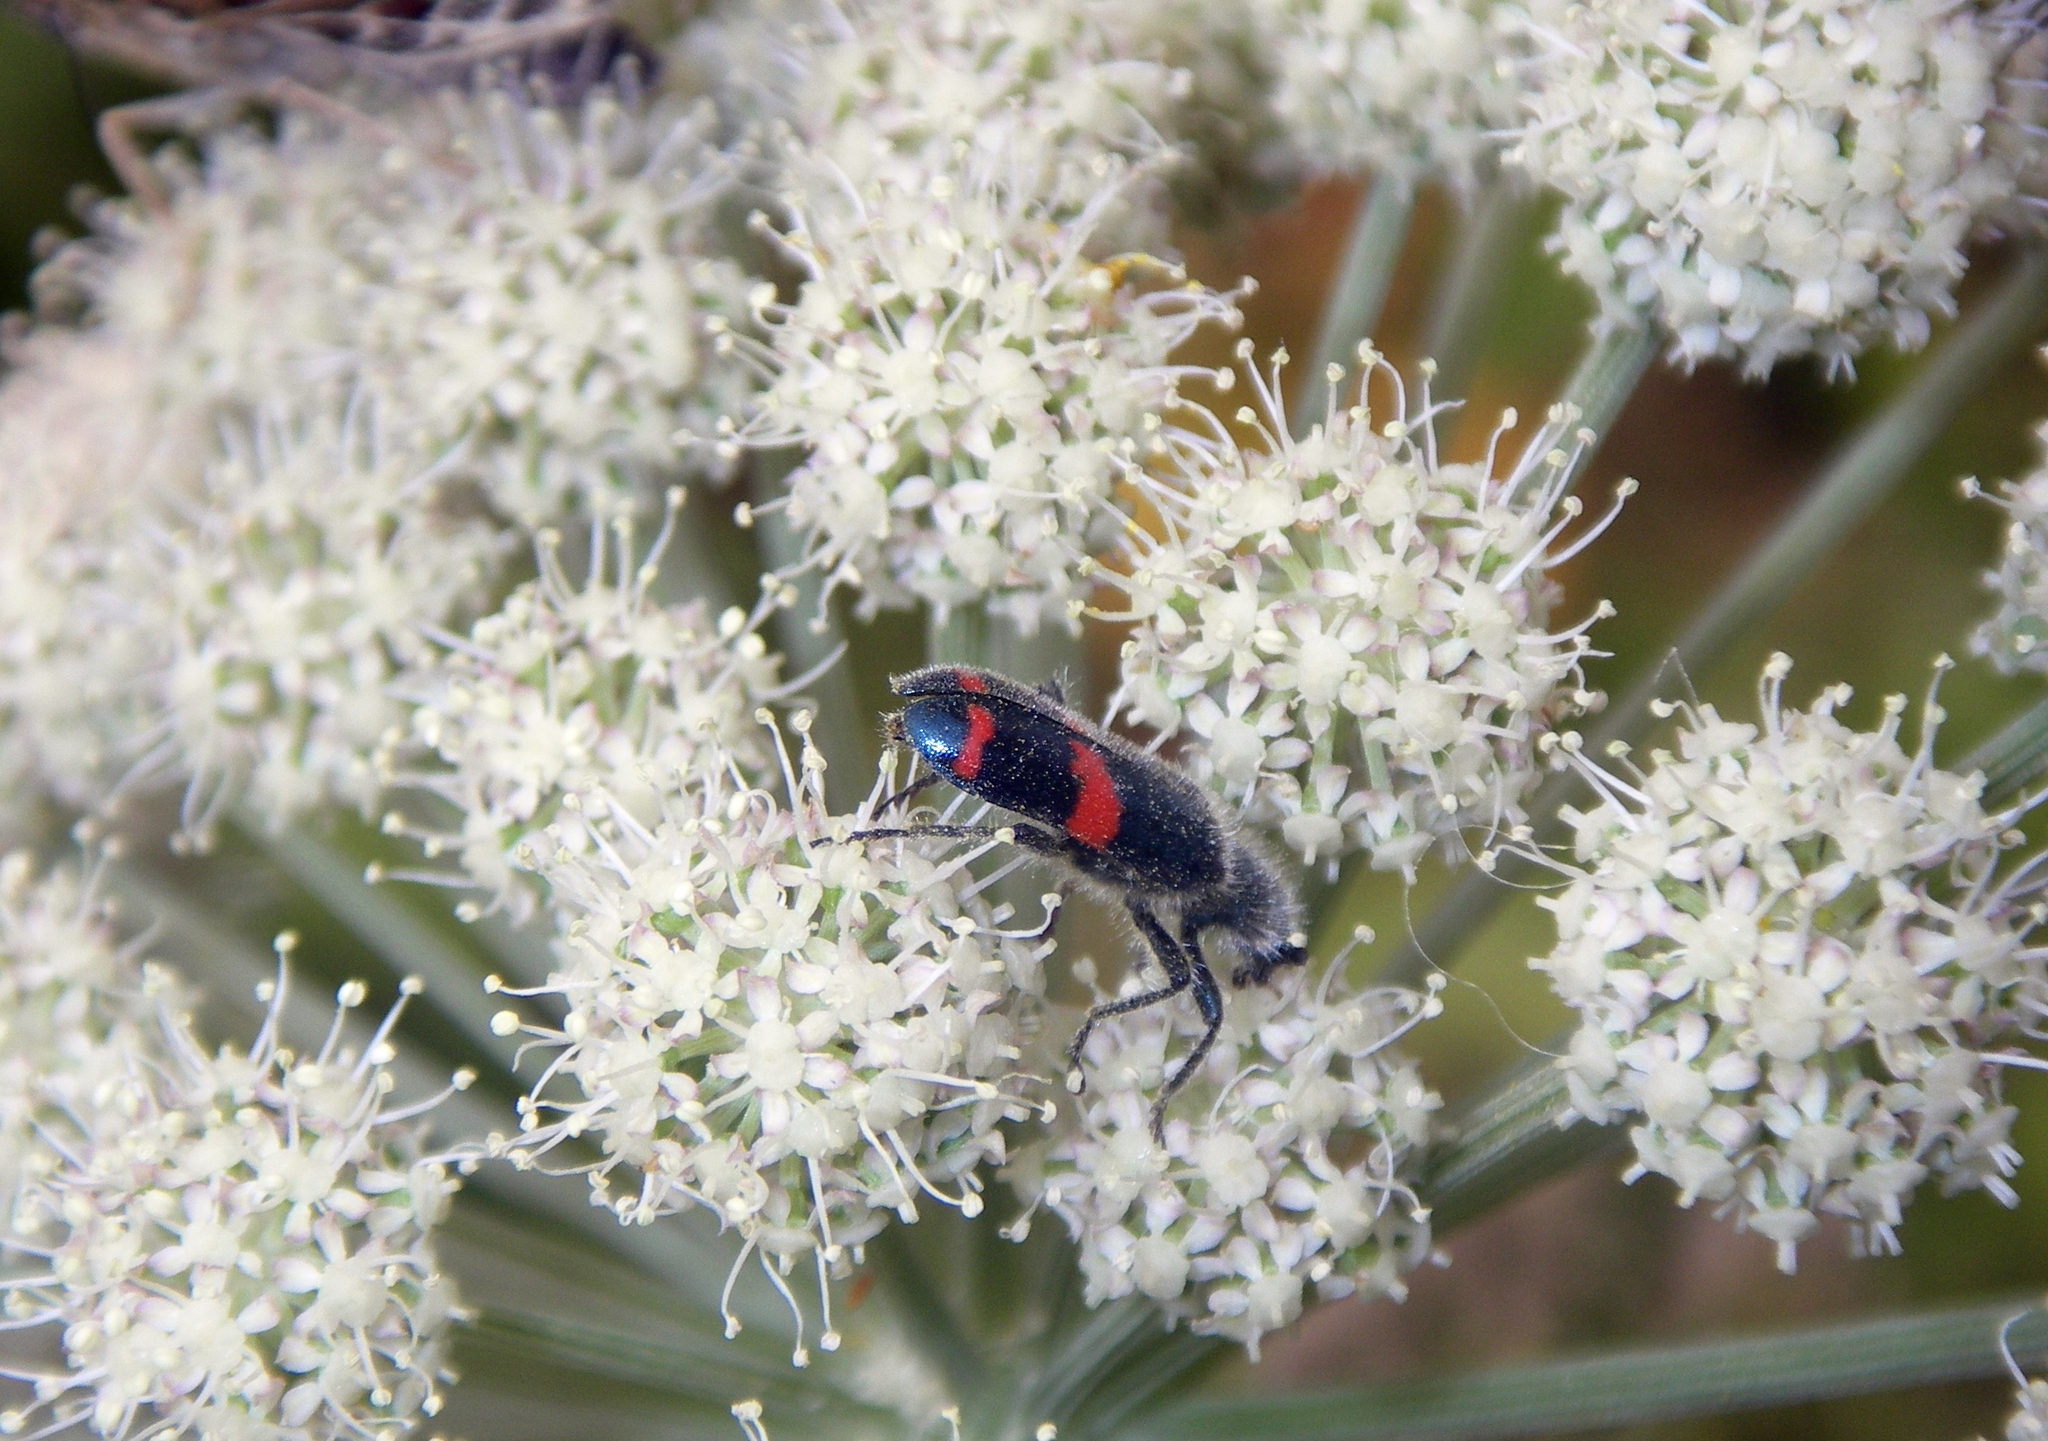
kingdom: Animalia
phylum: Arthropoda
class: Insecta
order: Coleoptera
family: Cleridae
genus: Trichodes
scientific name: Trichodes
